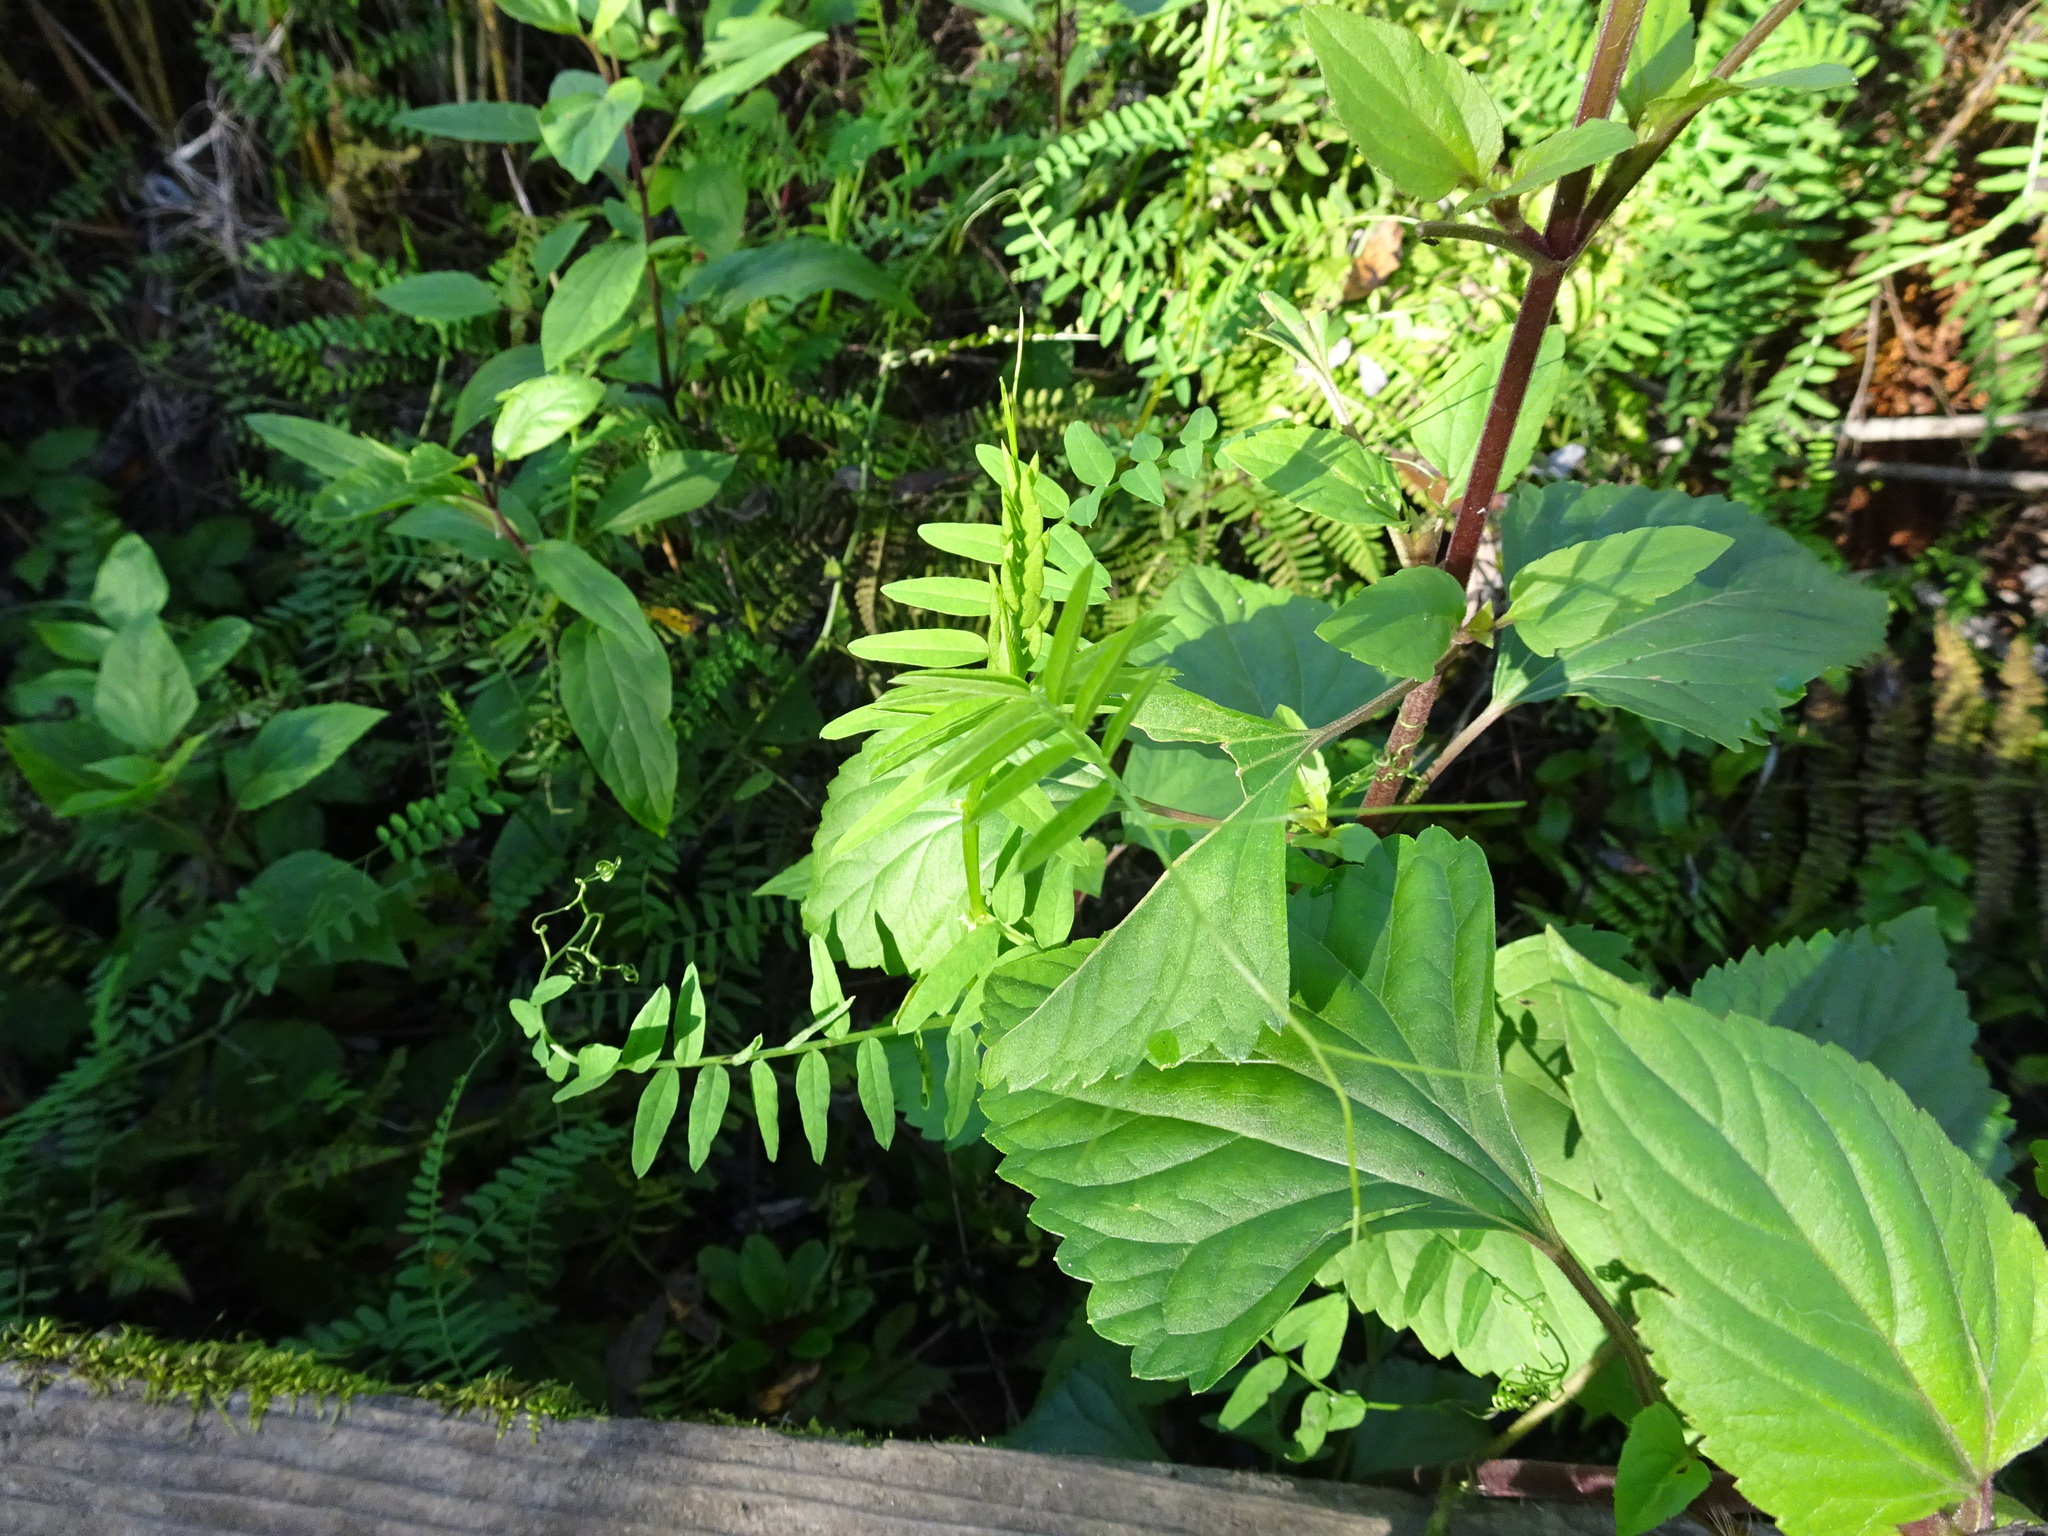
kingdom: Plantae
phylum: Tracheophyta
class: Magnoliopsida
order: Fabales
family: Fabaceae
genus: Vicia
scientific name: Vicia
